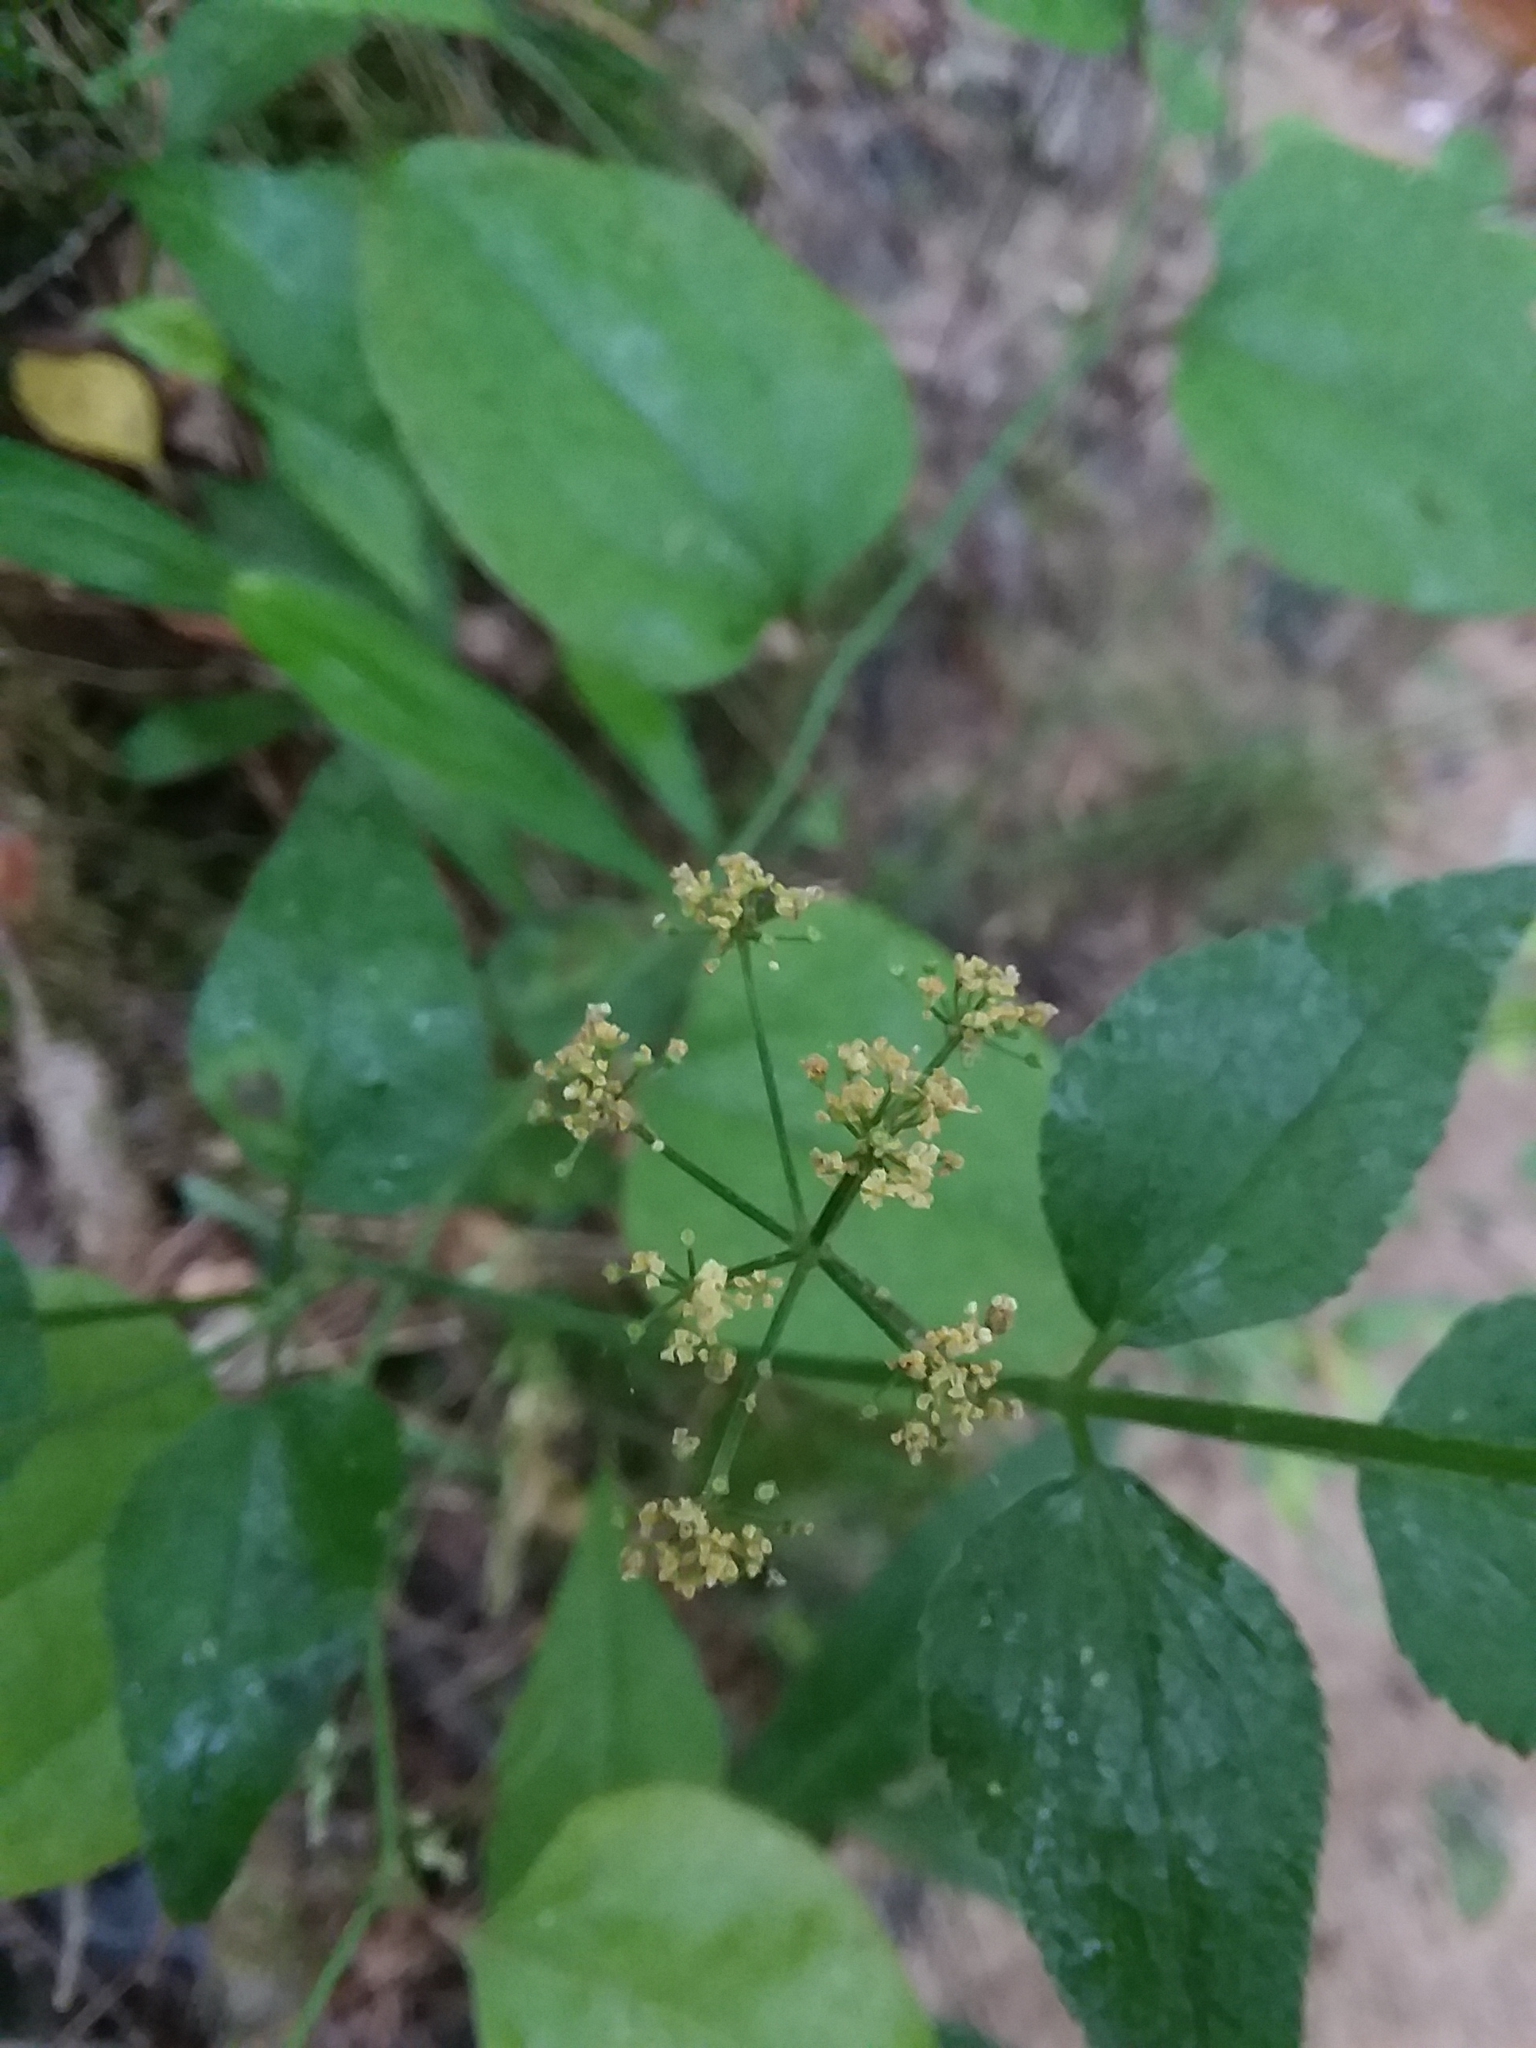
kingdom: Plantae
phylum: Tracheophyta
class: Magnoliopsida
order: Apiales
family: Apiaceae
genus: Thaspium
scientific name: Thaspium trifoliatum
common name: Purple meadow-parsnip
